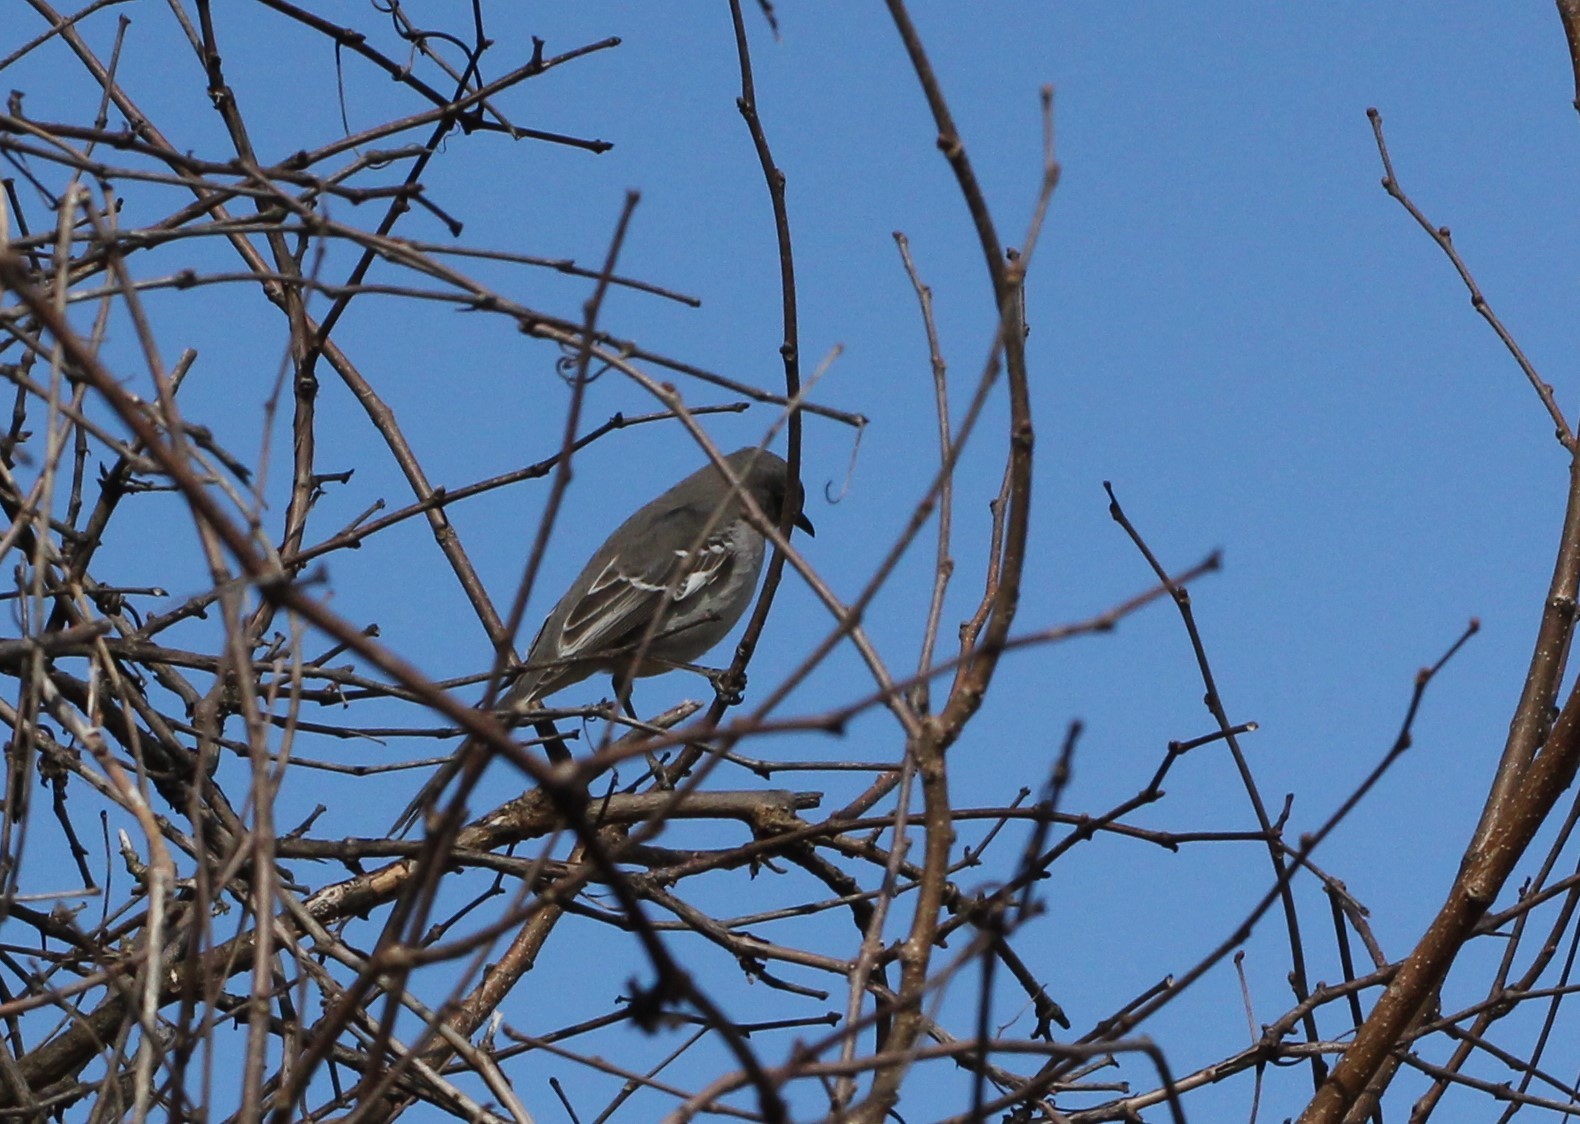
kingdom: Animalia
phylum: Chordata
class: Aves
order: Passeriformes
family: Mimidae
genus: Mimus
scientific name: Mimus polyglottos
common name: Northern mockingbird
